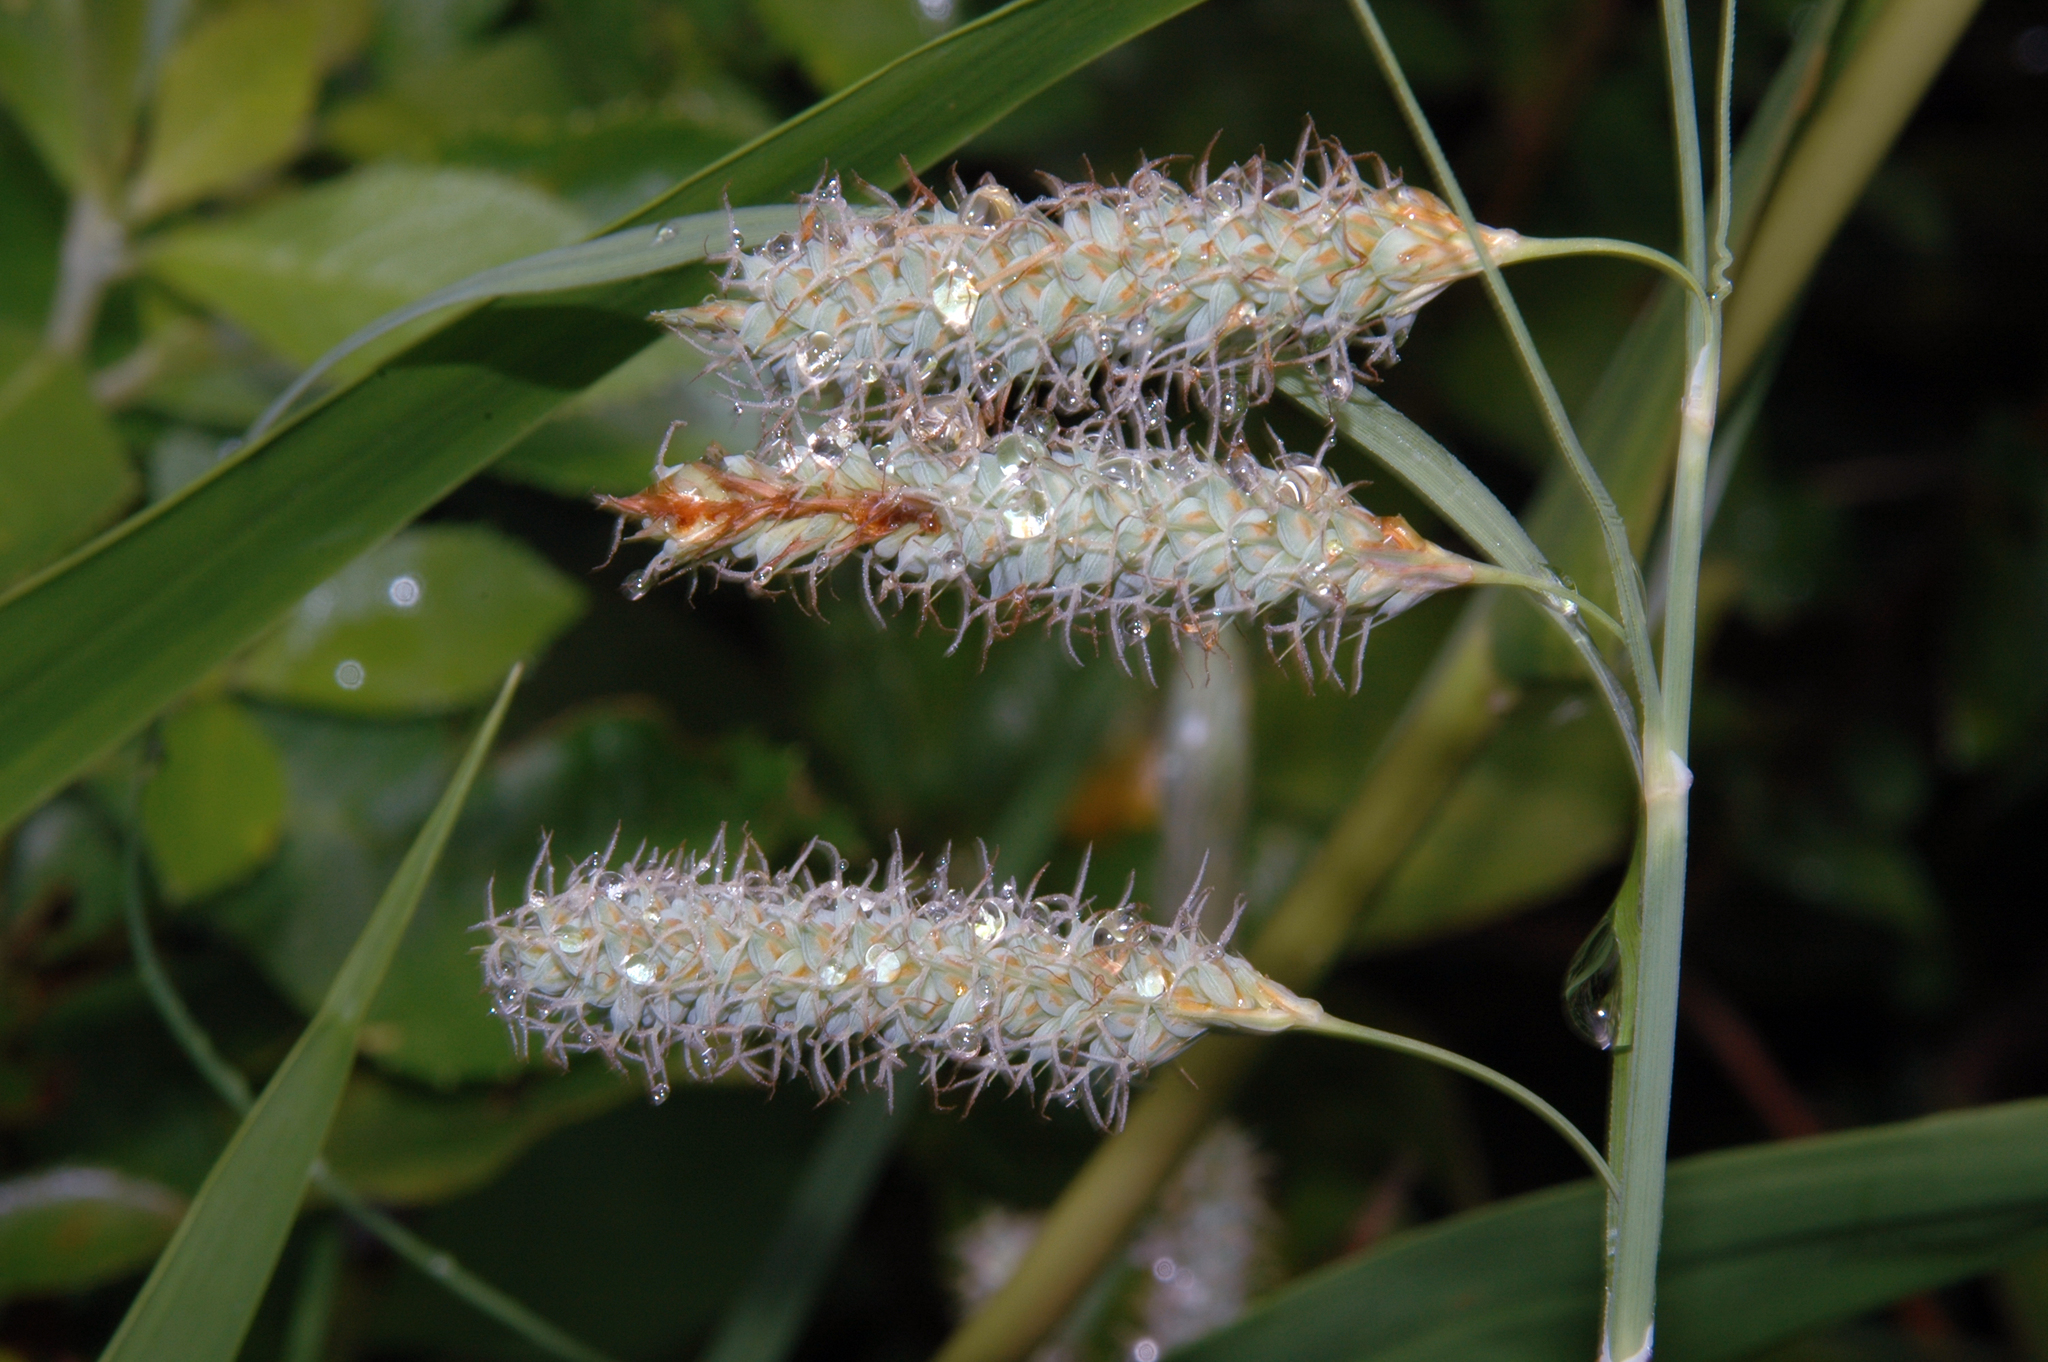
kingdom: Plantae
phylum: Tracheophyta
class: Liliopsida
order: Poales
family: Cyperaceae
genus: Carex
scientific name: Carex glaucescens
